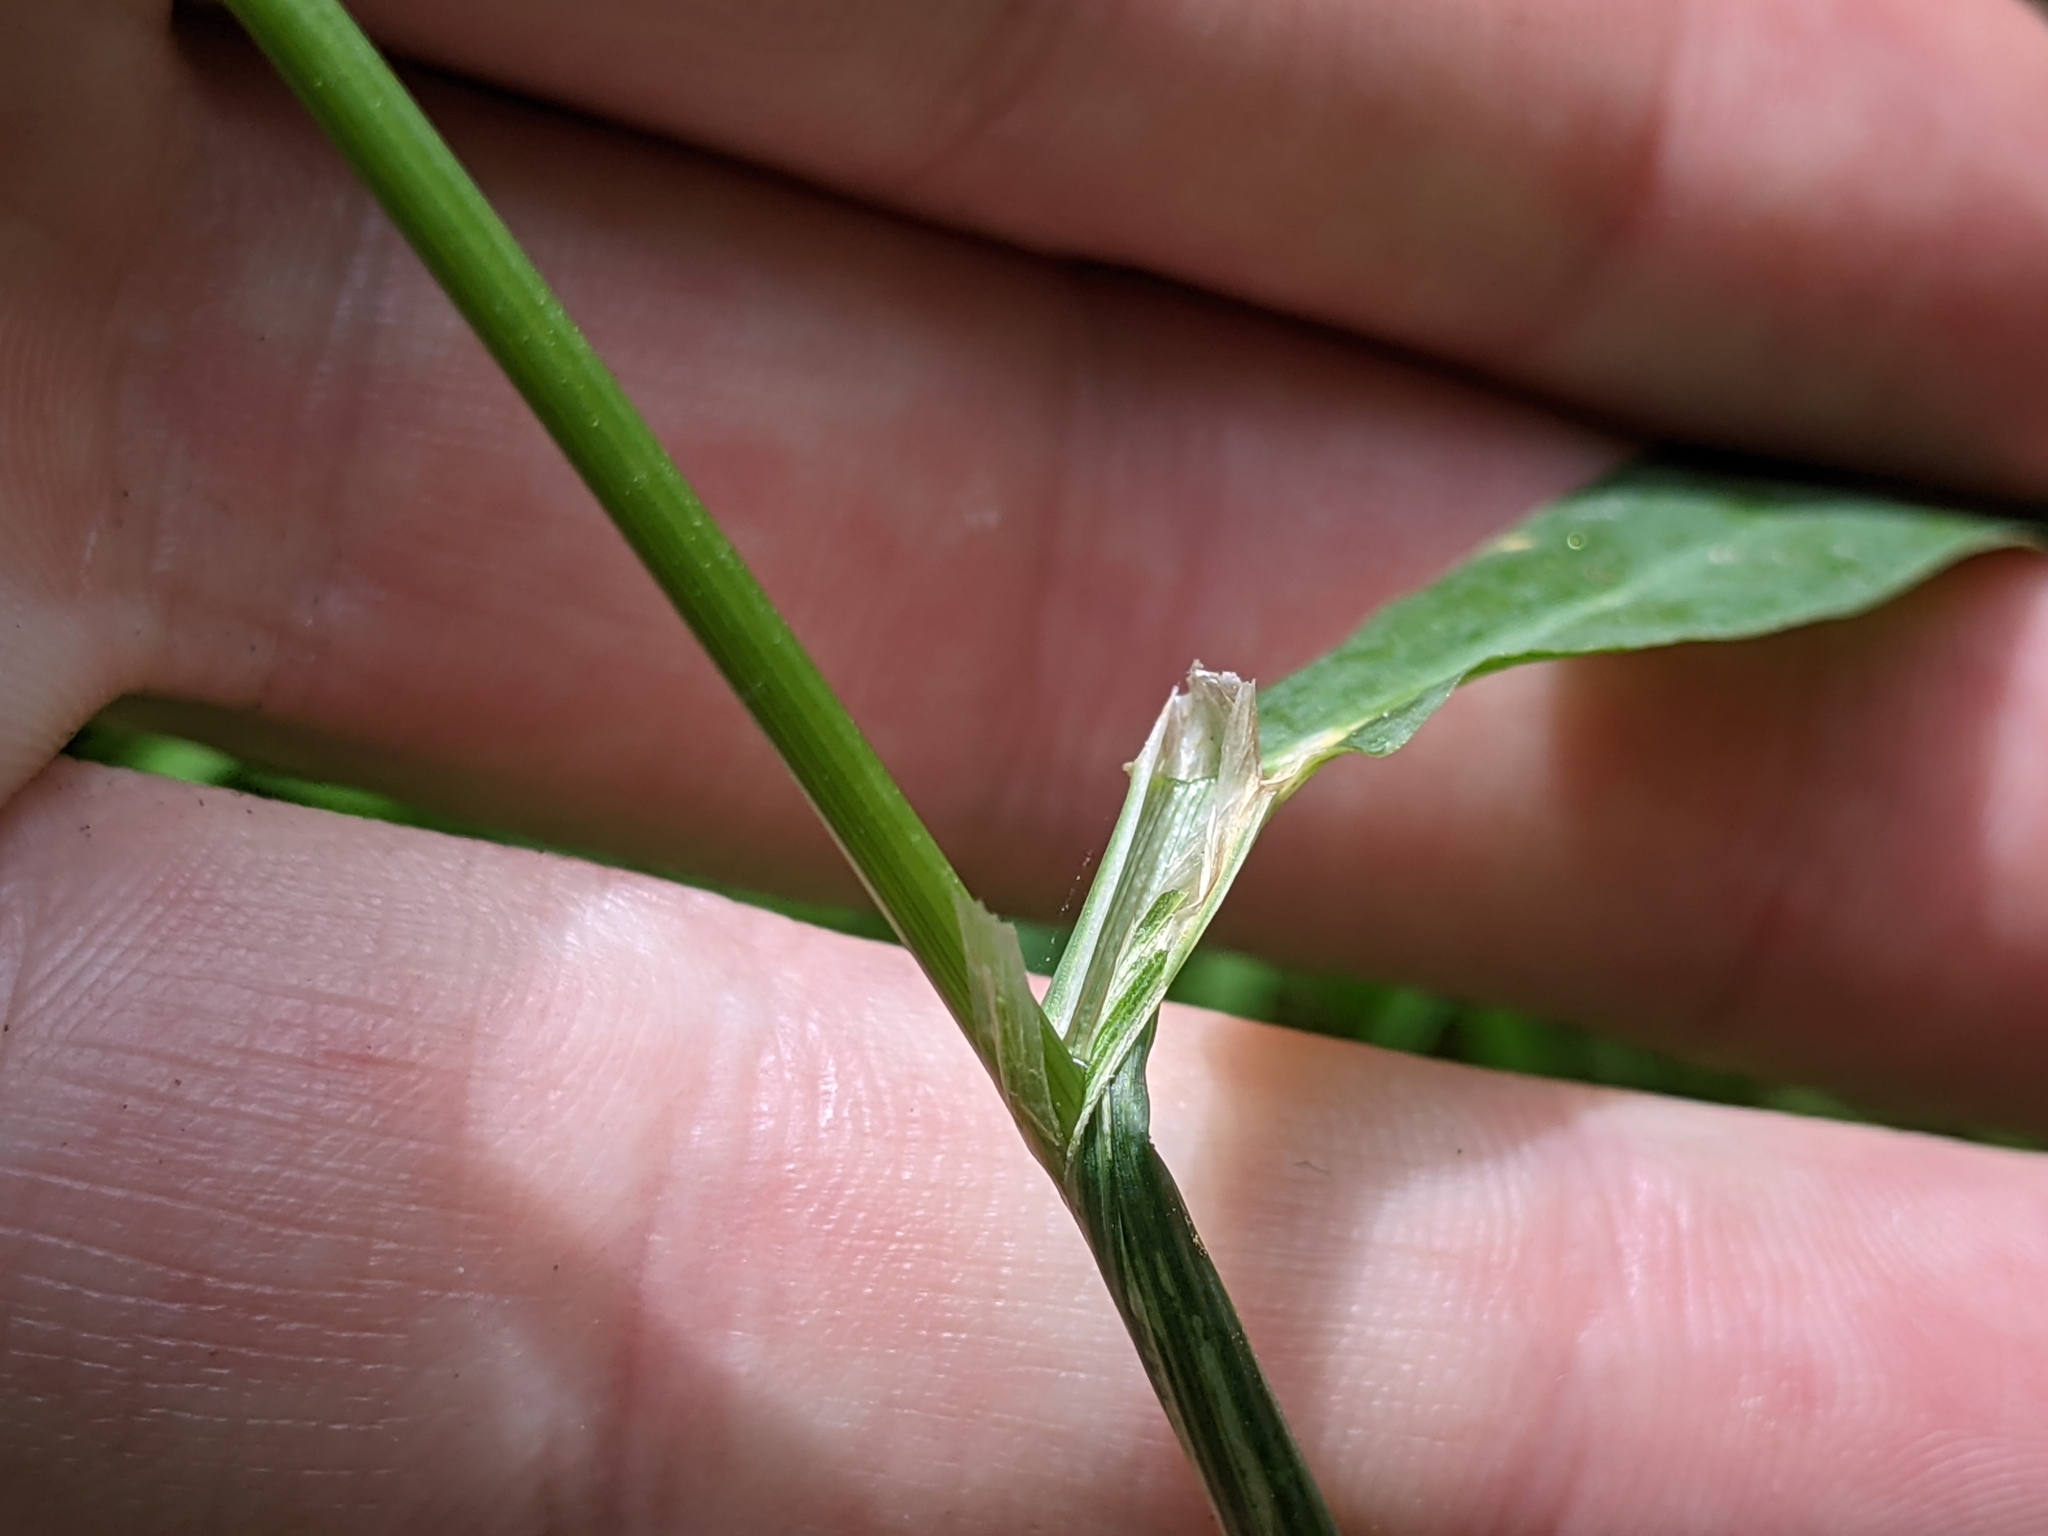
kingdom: Plantae
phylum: Tracheophyta
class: Liliopsida
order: Poales
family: Poaceae
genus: Phleum
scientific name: Phleum pratense
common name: Timothy grass
